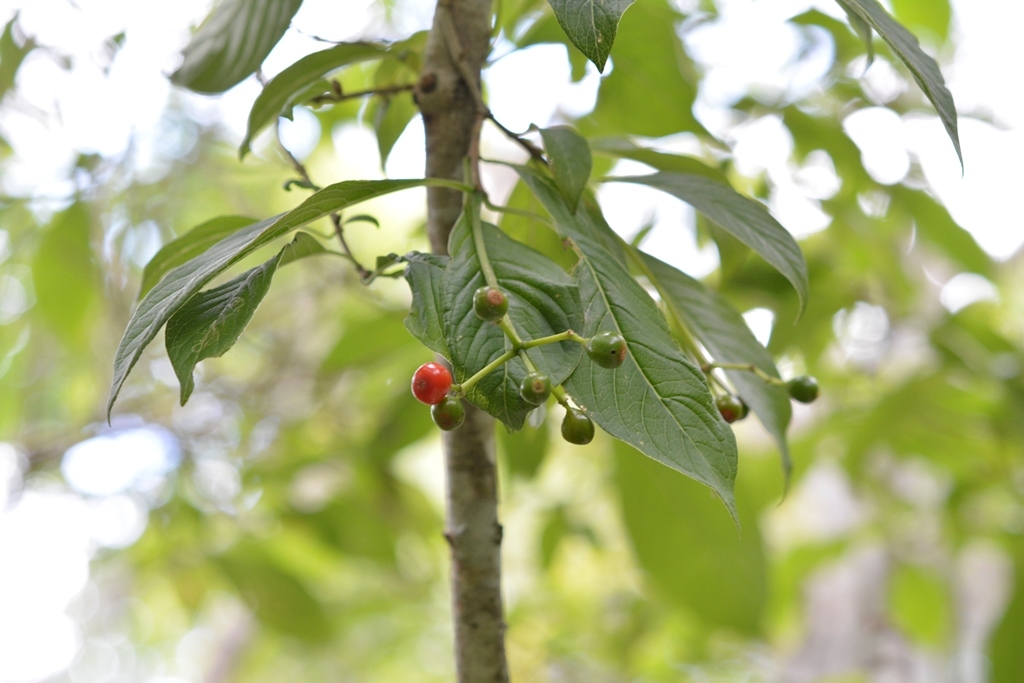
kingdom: Plantae
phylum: Tracheophyta
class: Magnoliopsida
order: Gentianales
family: Rubiaceae
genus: Coussarea
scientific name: Coussarea chiapensis
